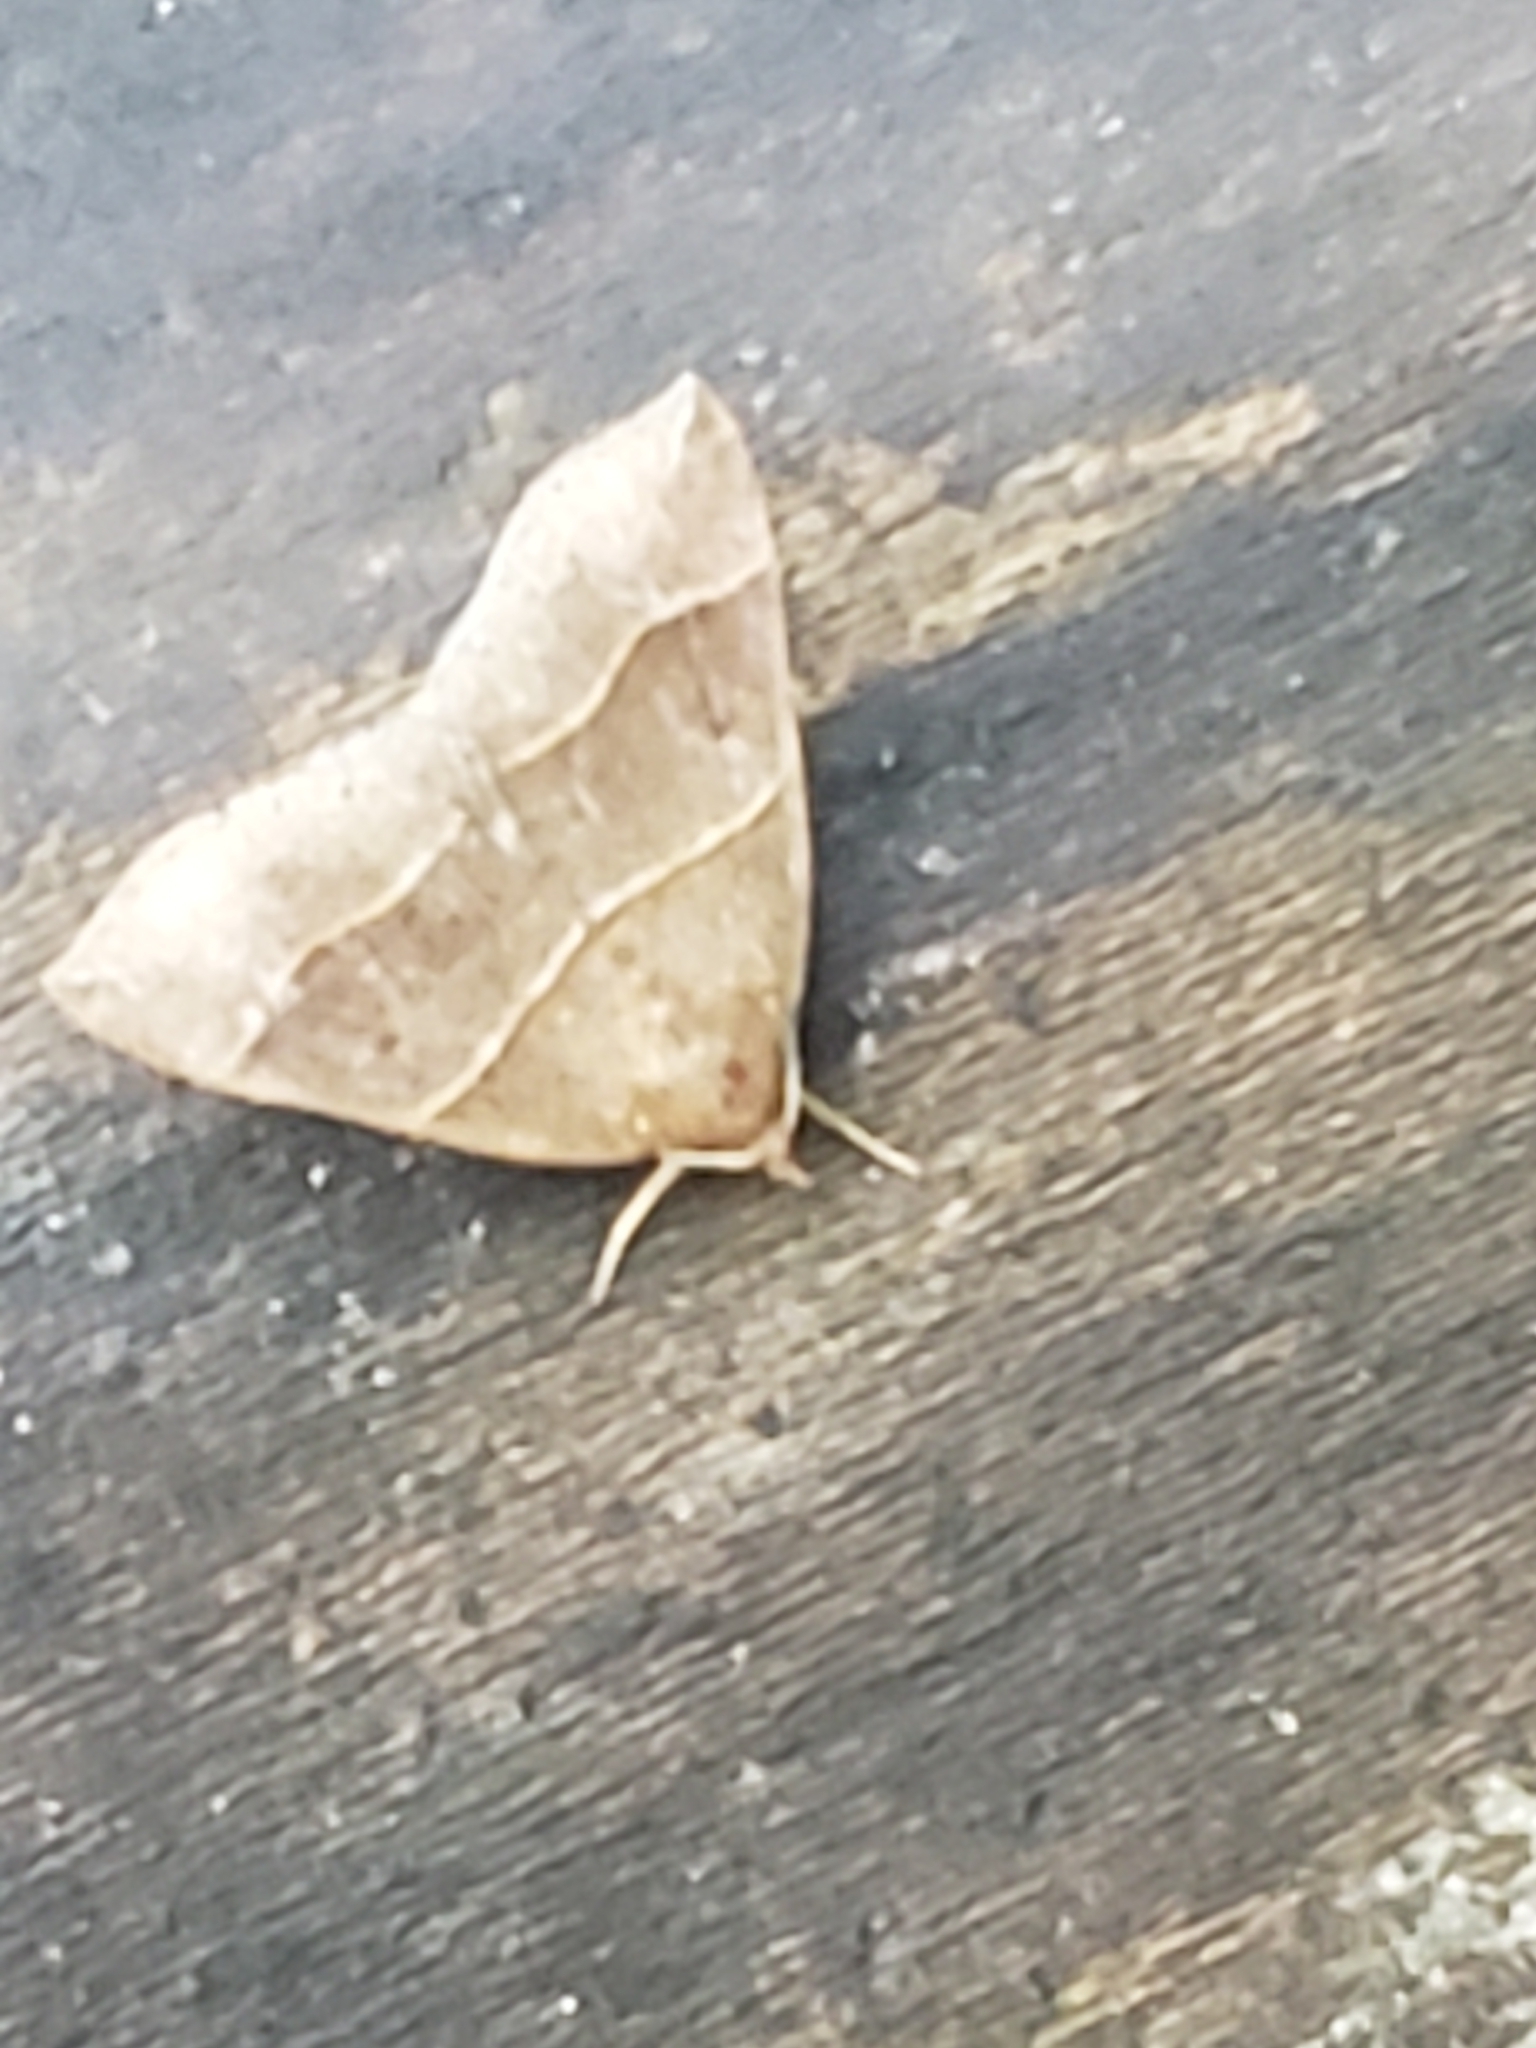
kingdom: Animalia
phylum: Arthropoda
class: Insecta
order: Lepidoptera
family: Erebidae
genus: Parallelia
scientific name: Parallelia bistriaris
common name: Maple looper moth
